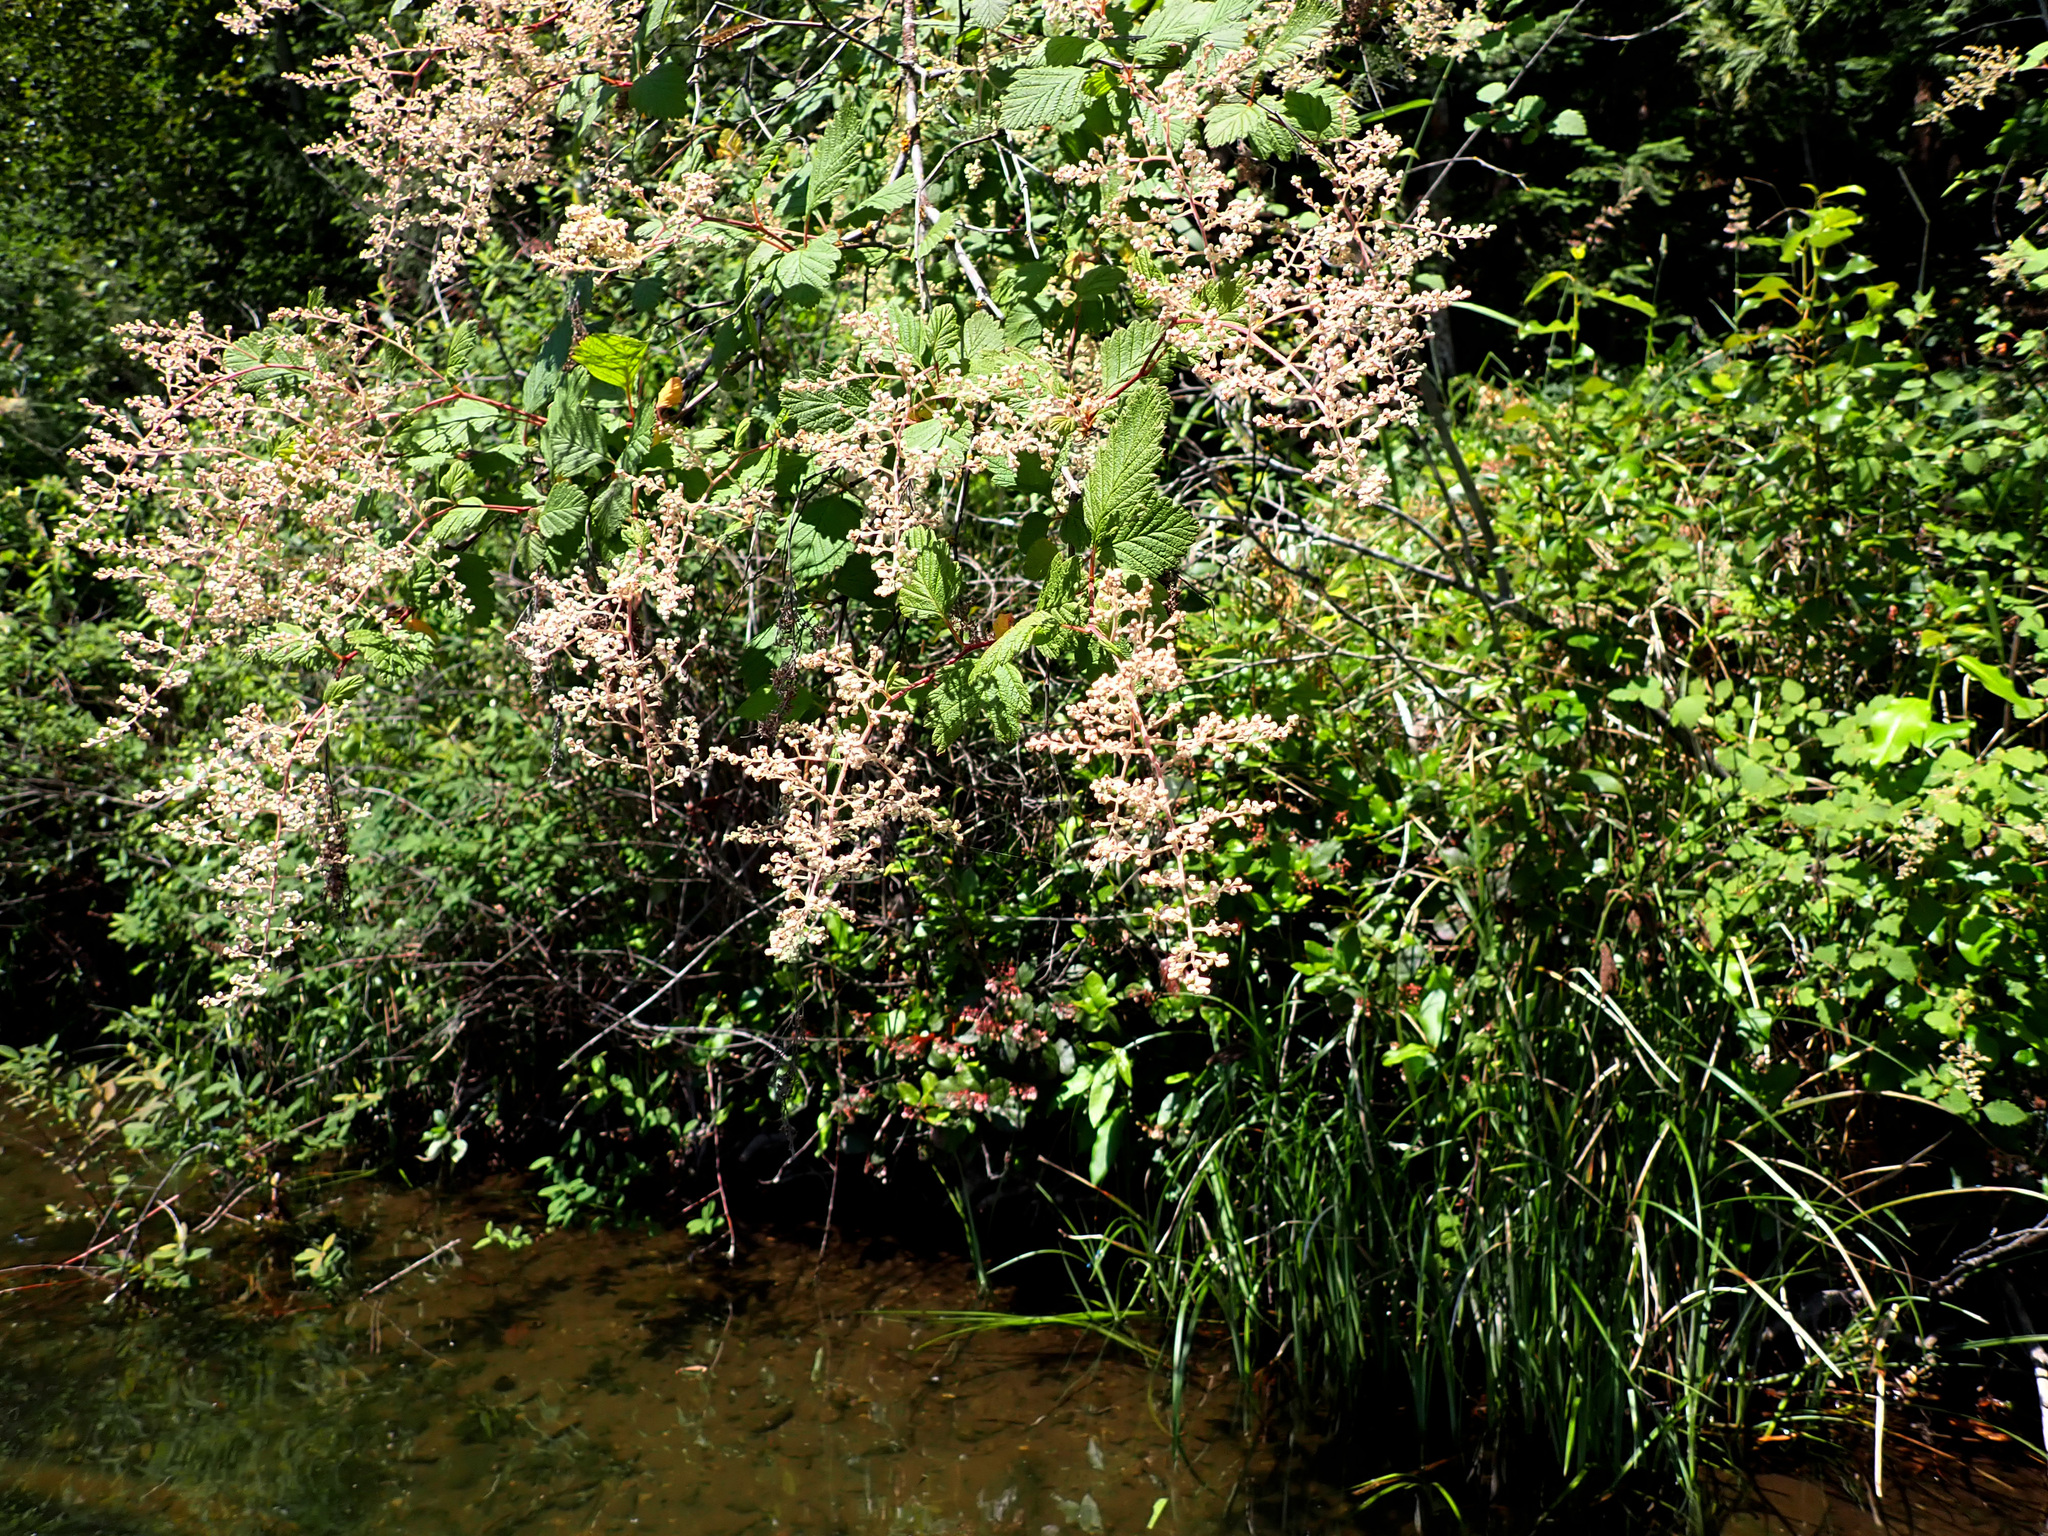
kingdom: Plantae
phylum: Tracheophyta
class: Magnoliopsida
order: Rosales
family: Rosaceae
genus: Holodiscus
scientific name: Holodiscus discolor
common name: Oceanspray
